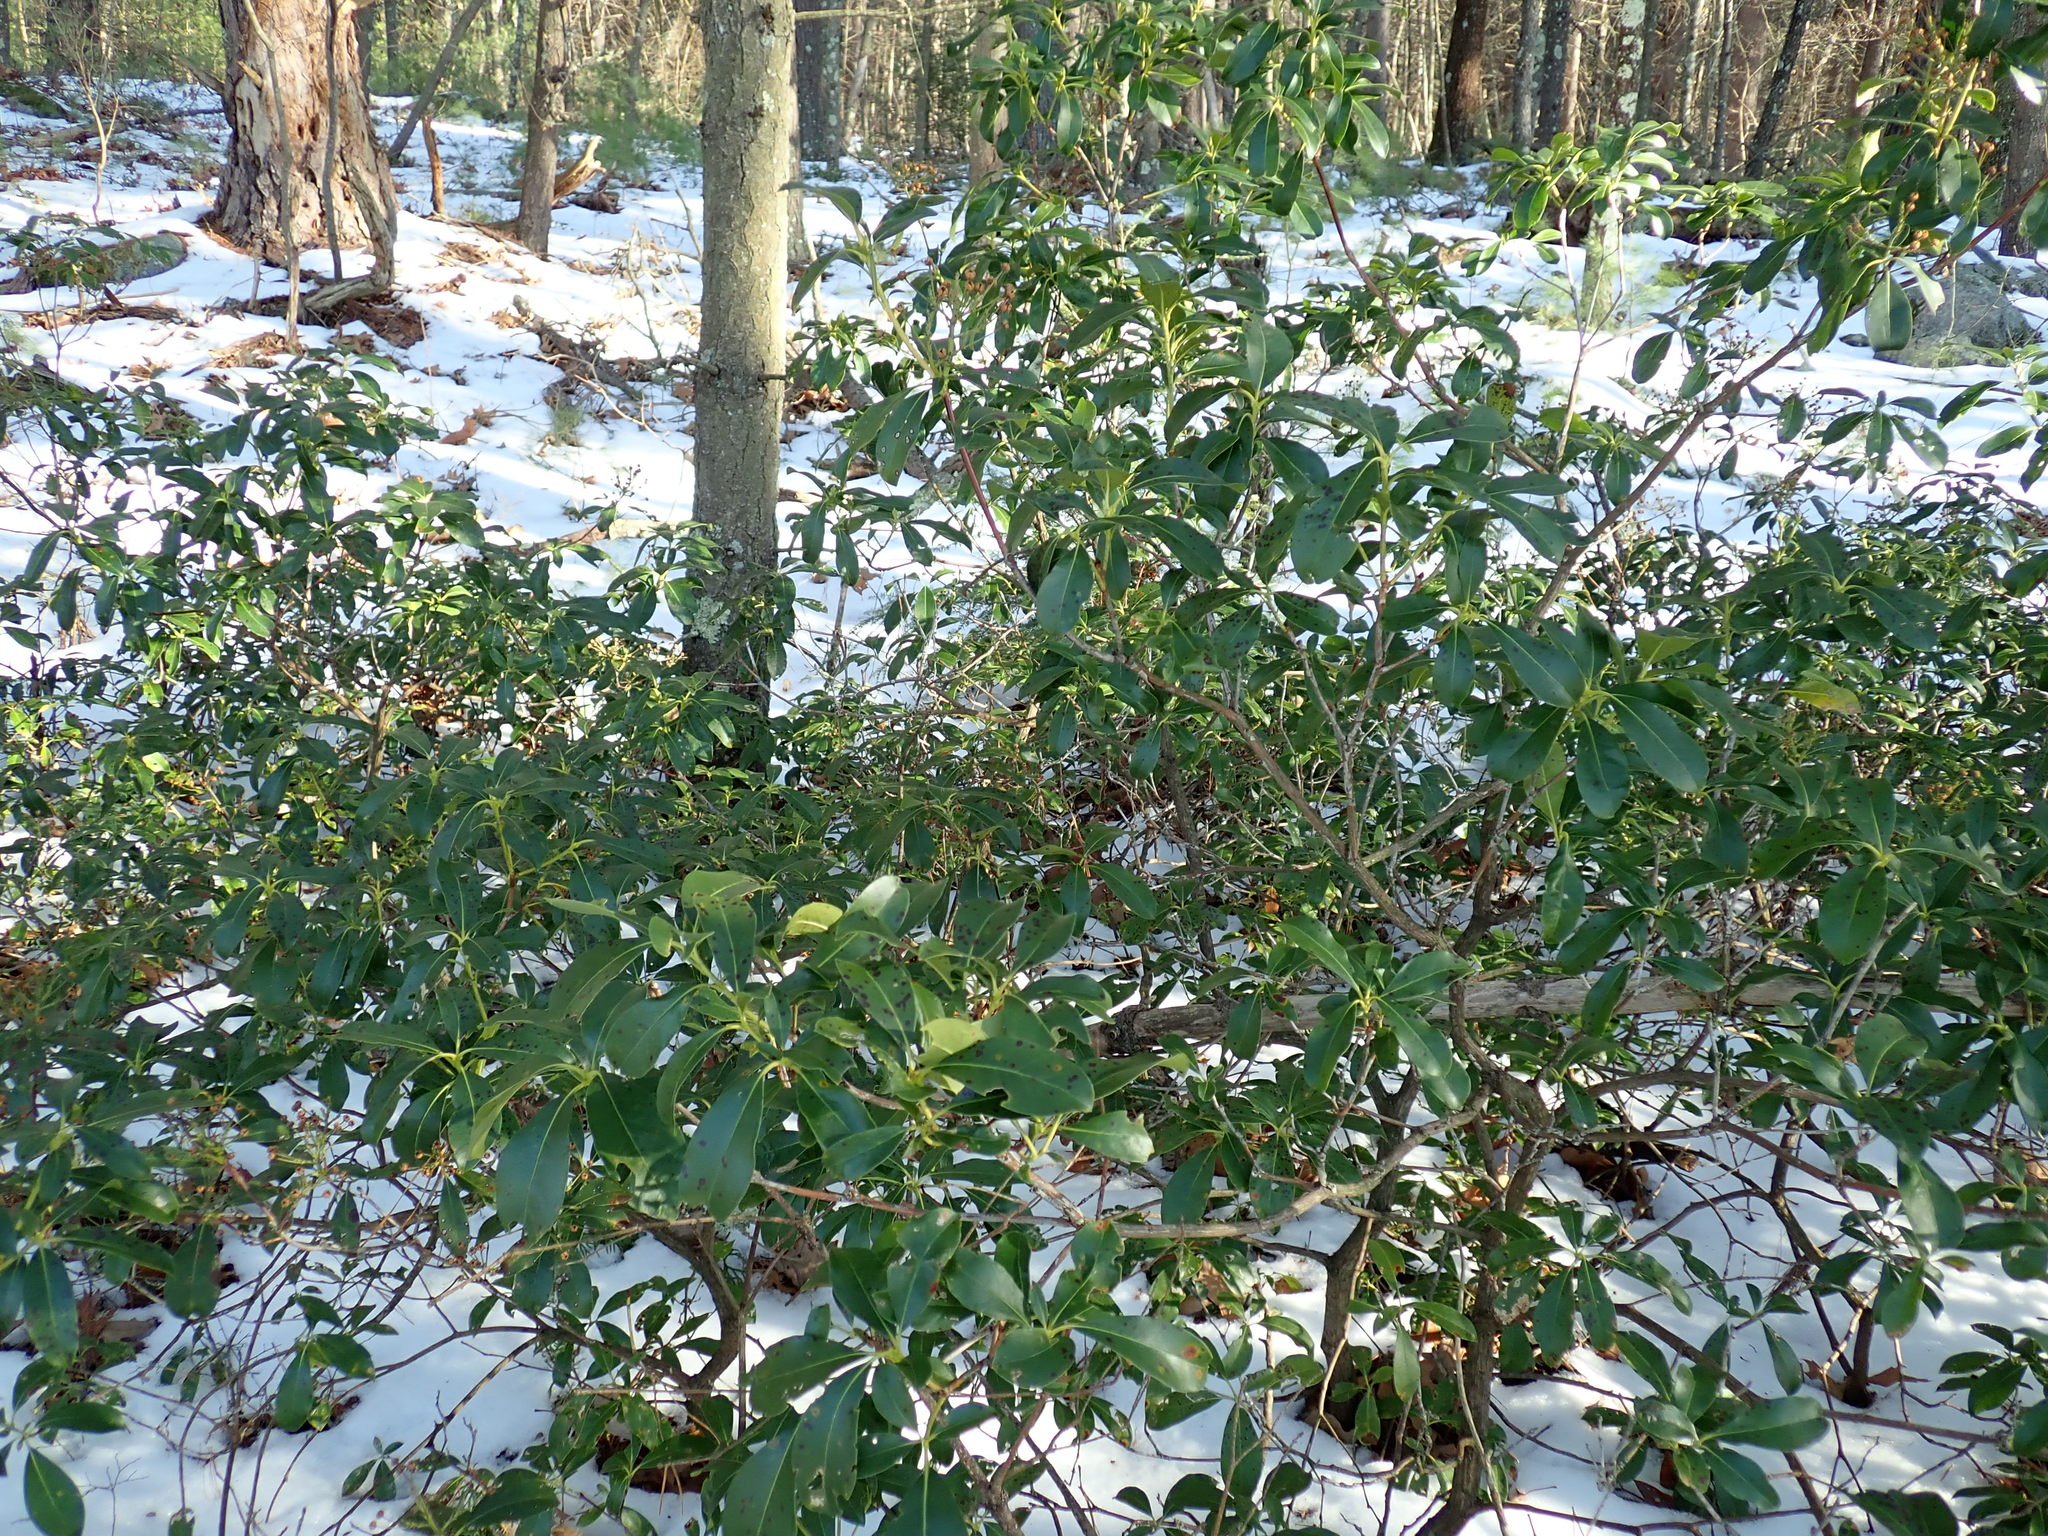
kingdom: Plantae
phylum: Tracheophyta
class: Magnoliopsida
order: Ericales
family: Ericaceae
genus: Kalmia
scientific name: Kalmia latifolia
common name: Mountain-laurel
